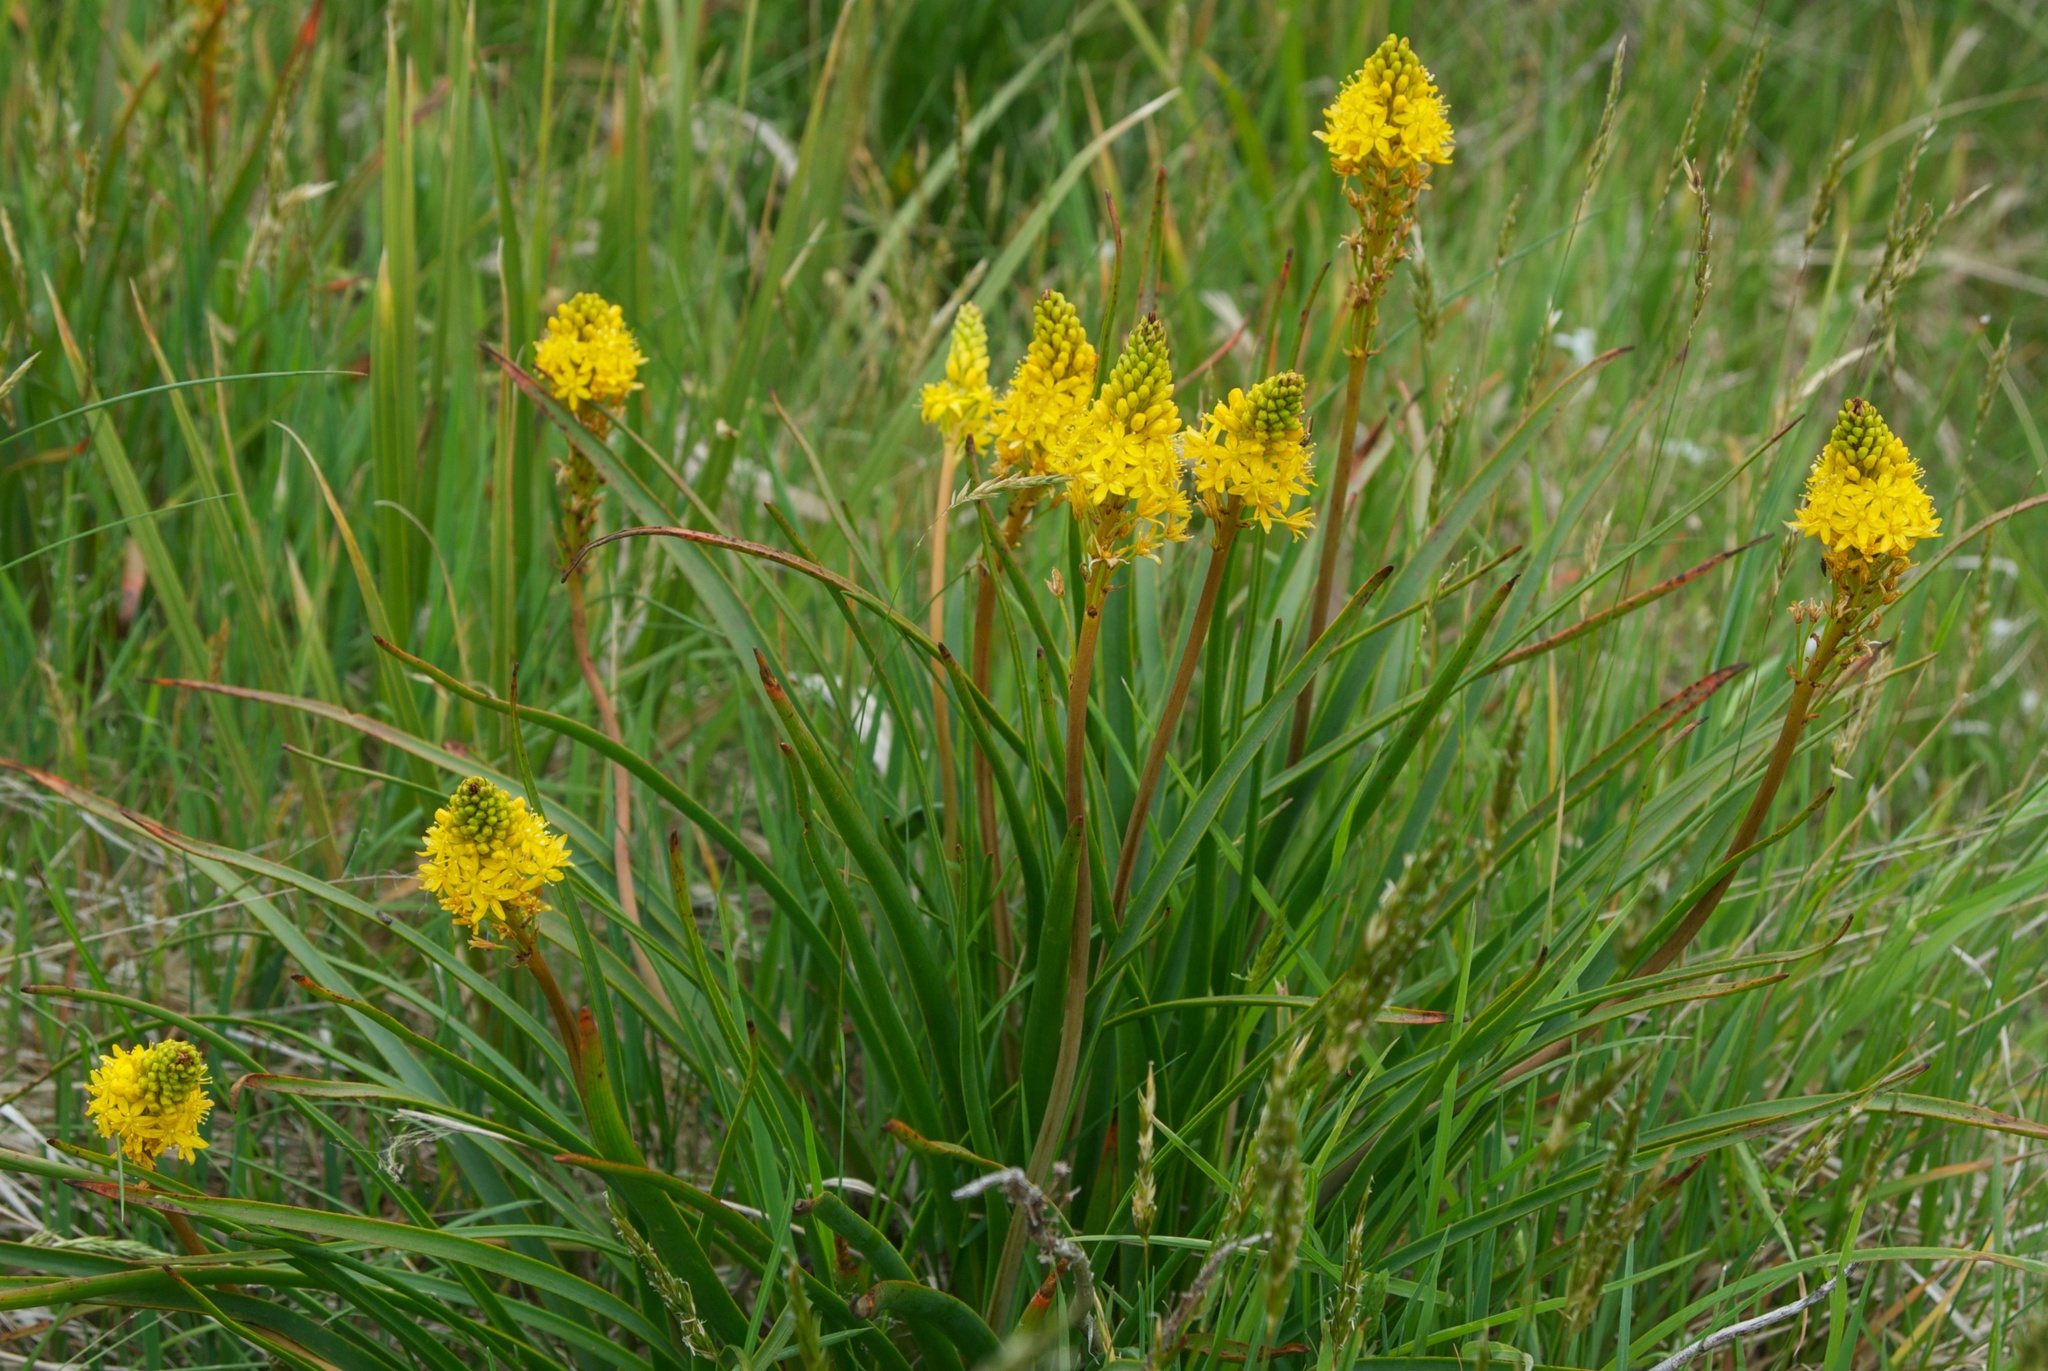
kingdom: Plantae
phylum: Tracheophyta
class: Liliopsida
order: Asparagales
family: Asphodelaceae
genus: Bulbinella
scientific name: Bulbinella angustifolia
